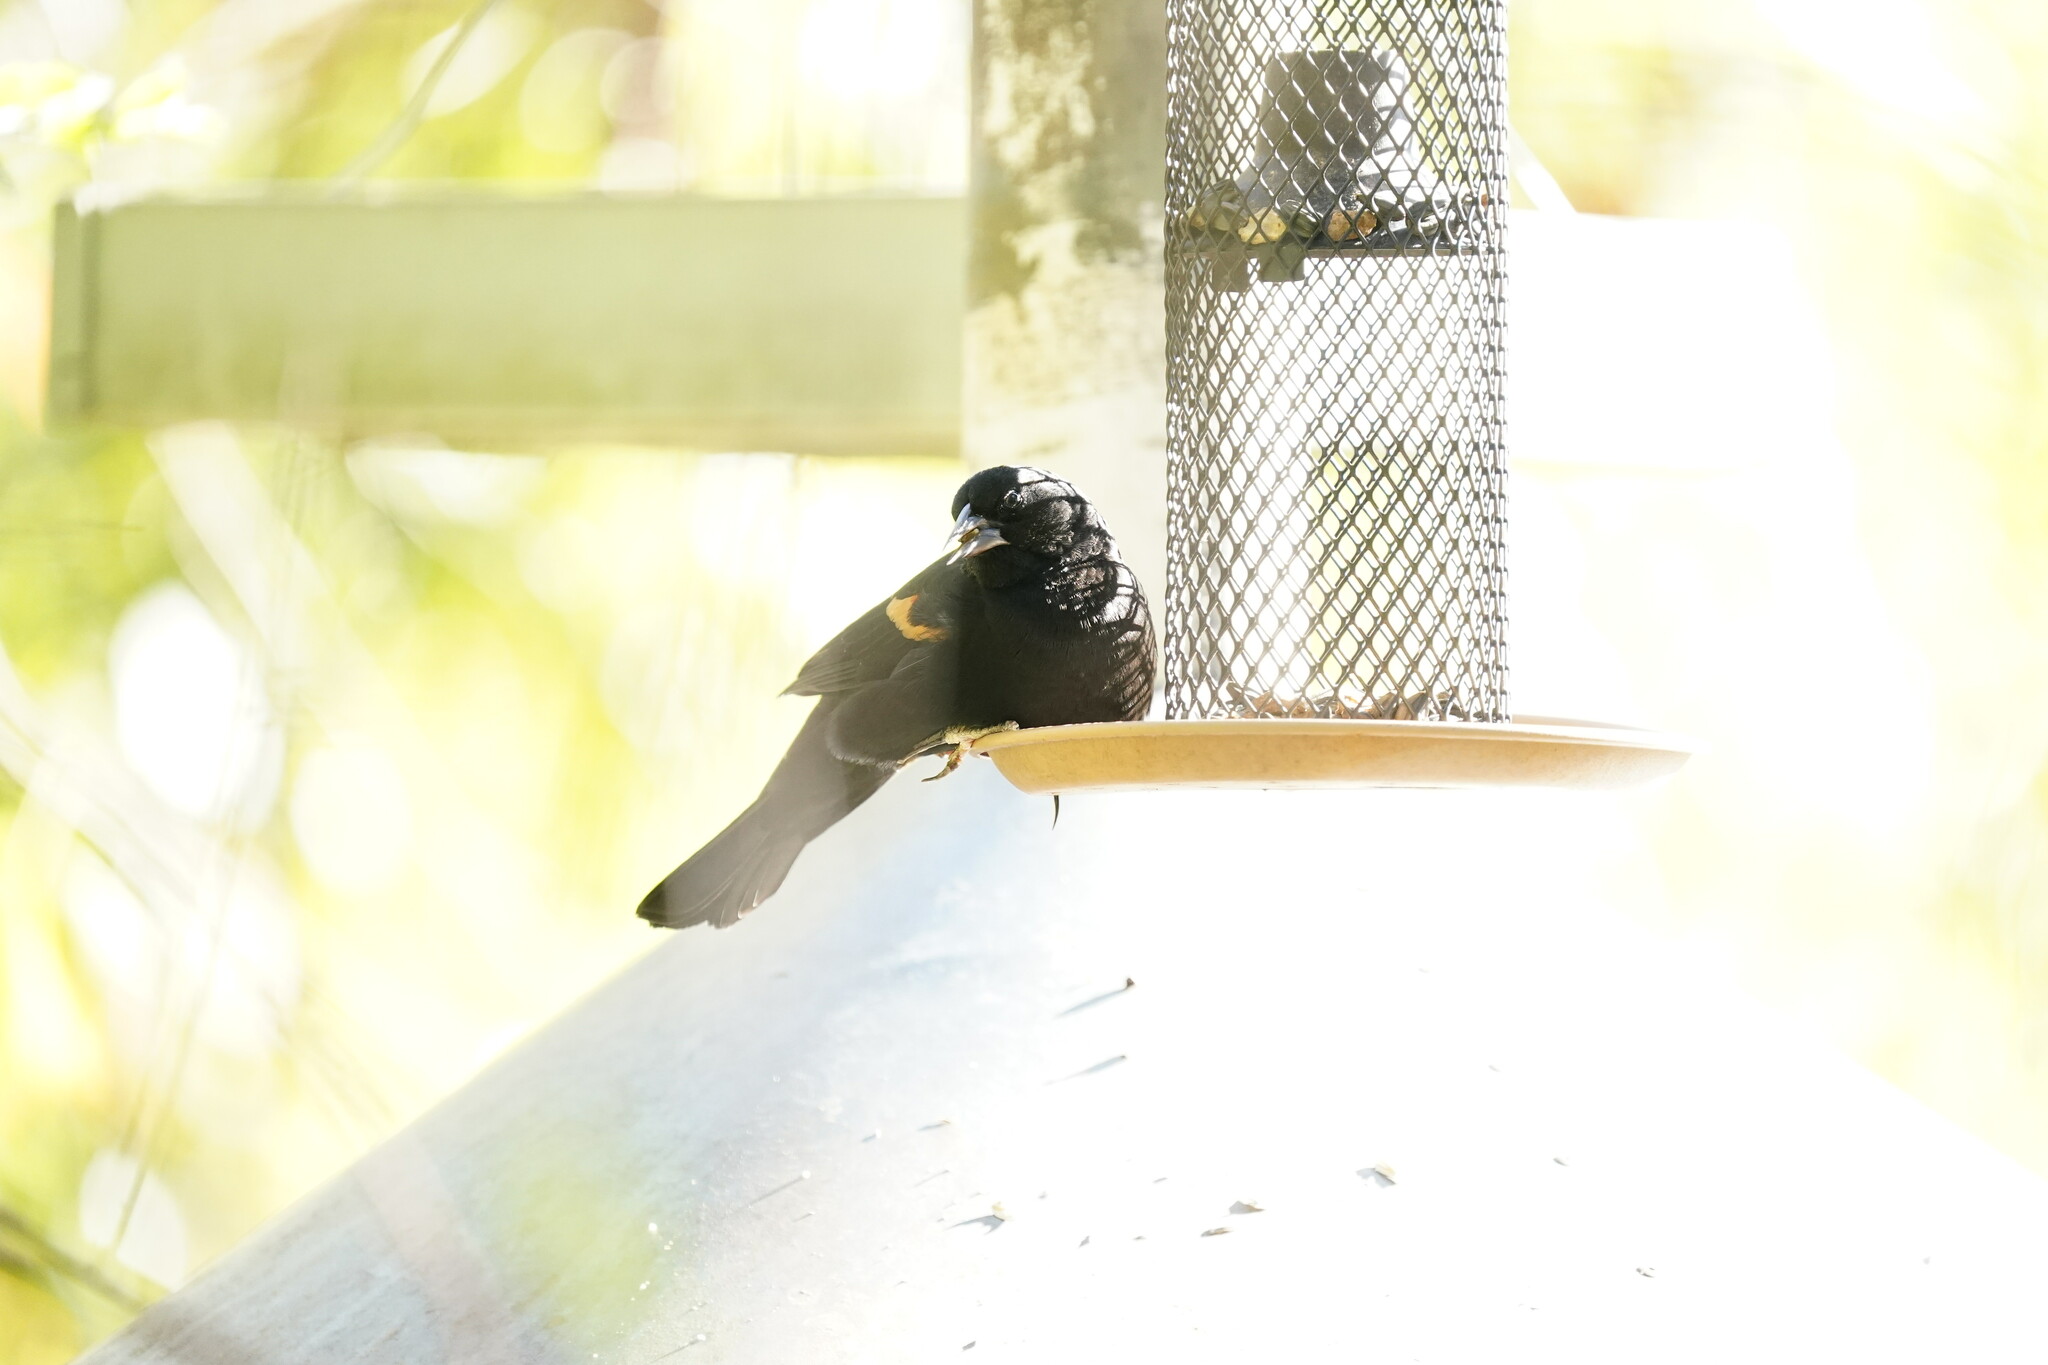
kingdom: Animalia
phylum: Chordata
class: Aves
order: Passeriformes
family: Icteridae
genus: Agelaius
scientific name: Agelaius phoeniceus
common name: Red-winged blackbird
